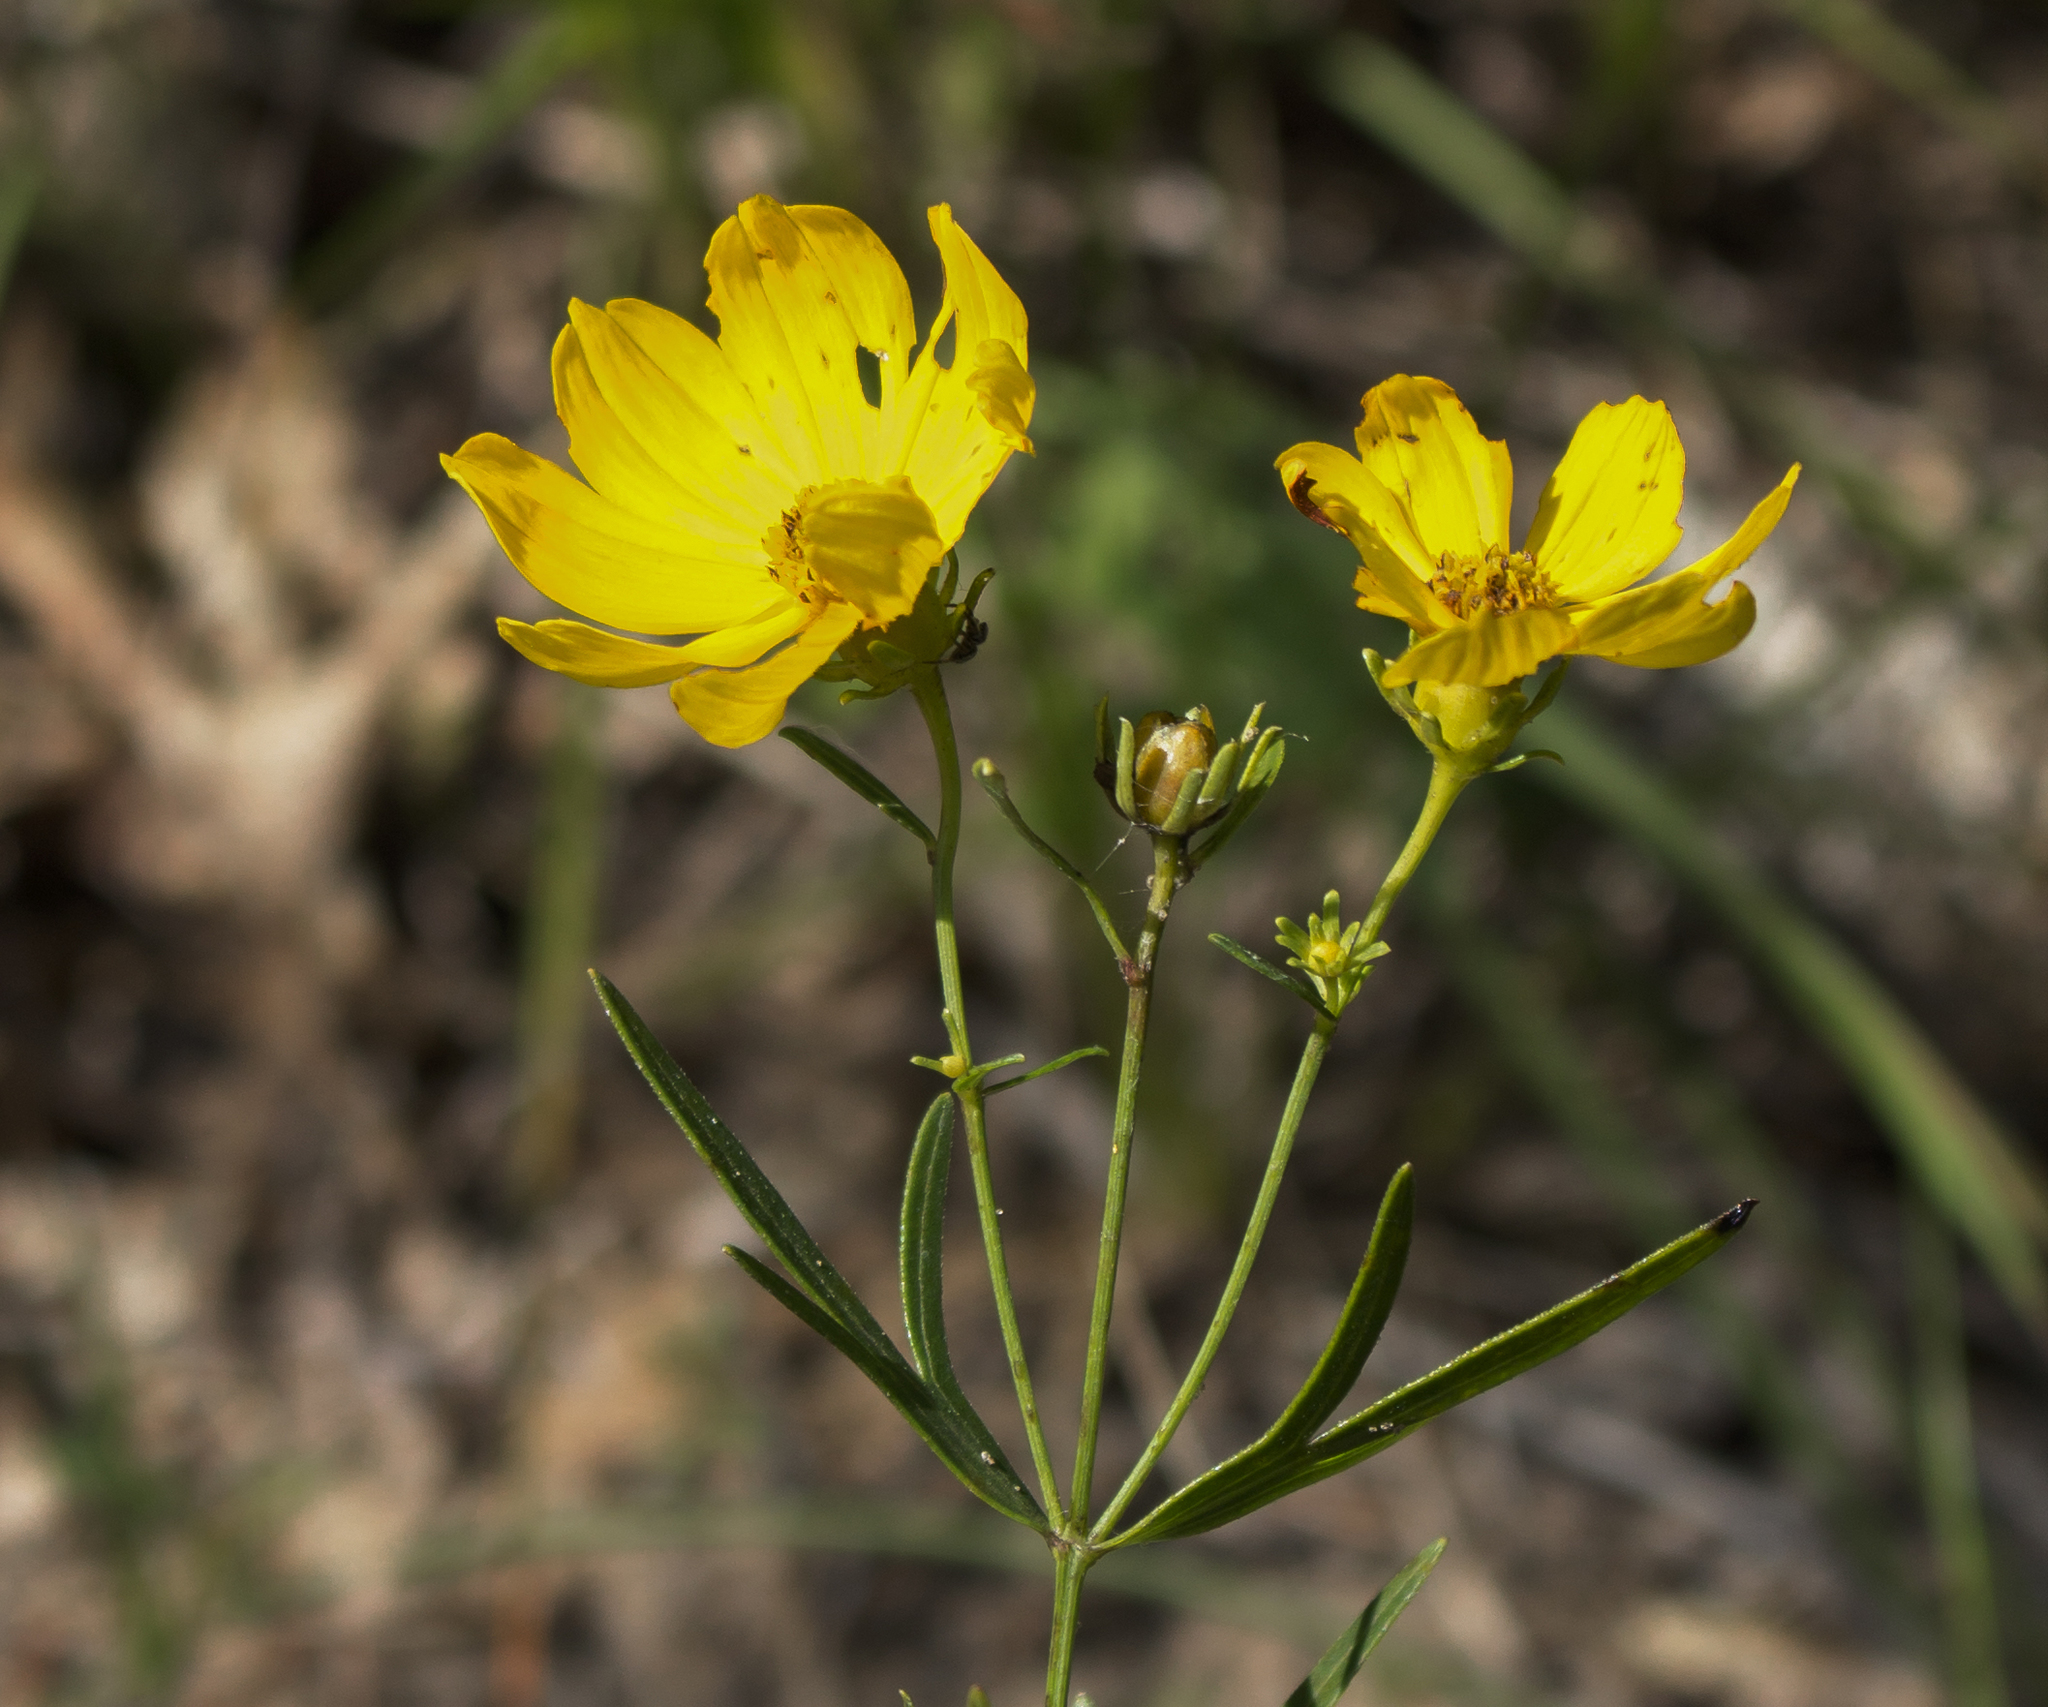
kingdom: Plantae
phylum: Tracheophyta
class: Magnoliopsida
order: Asterales
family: Asteraceae
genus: Coreopsis
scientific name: Coreopsis palmata
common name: Prairie coreopsis
